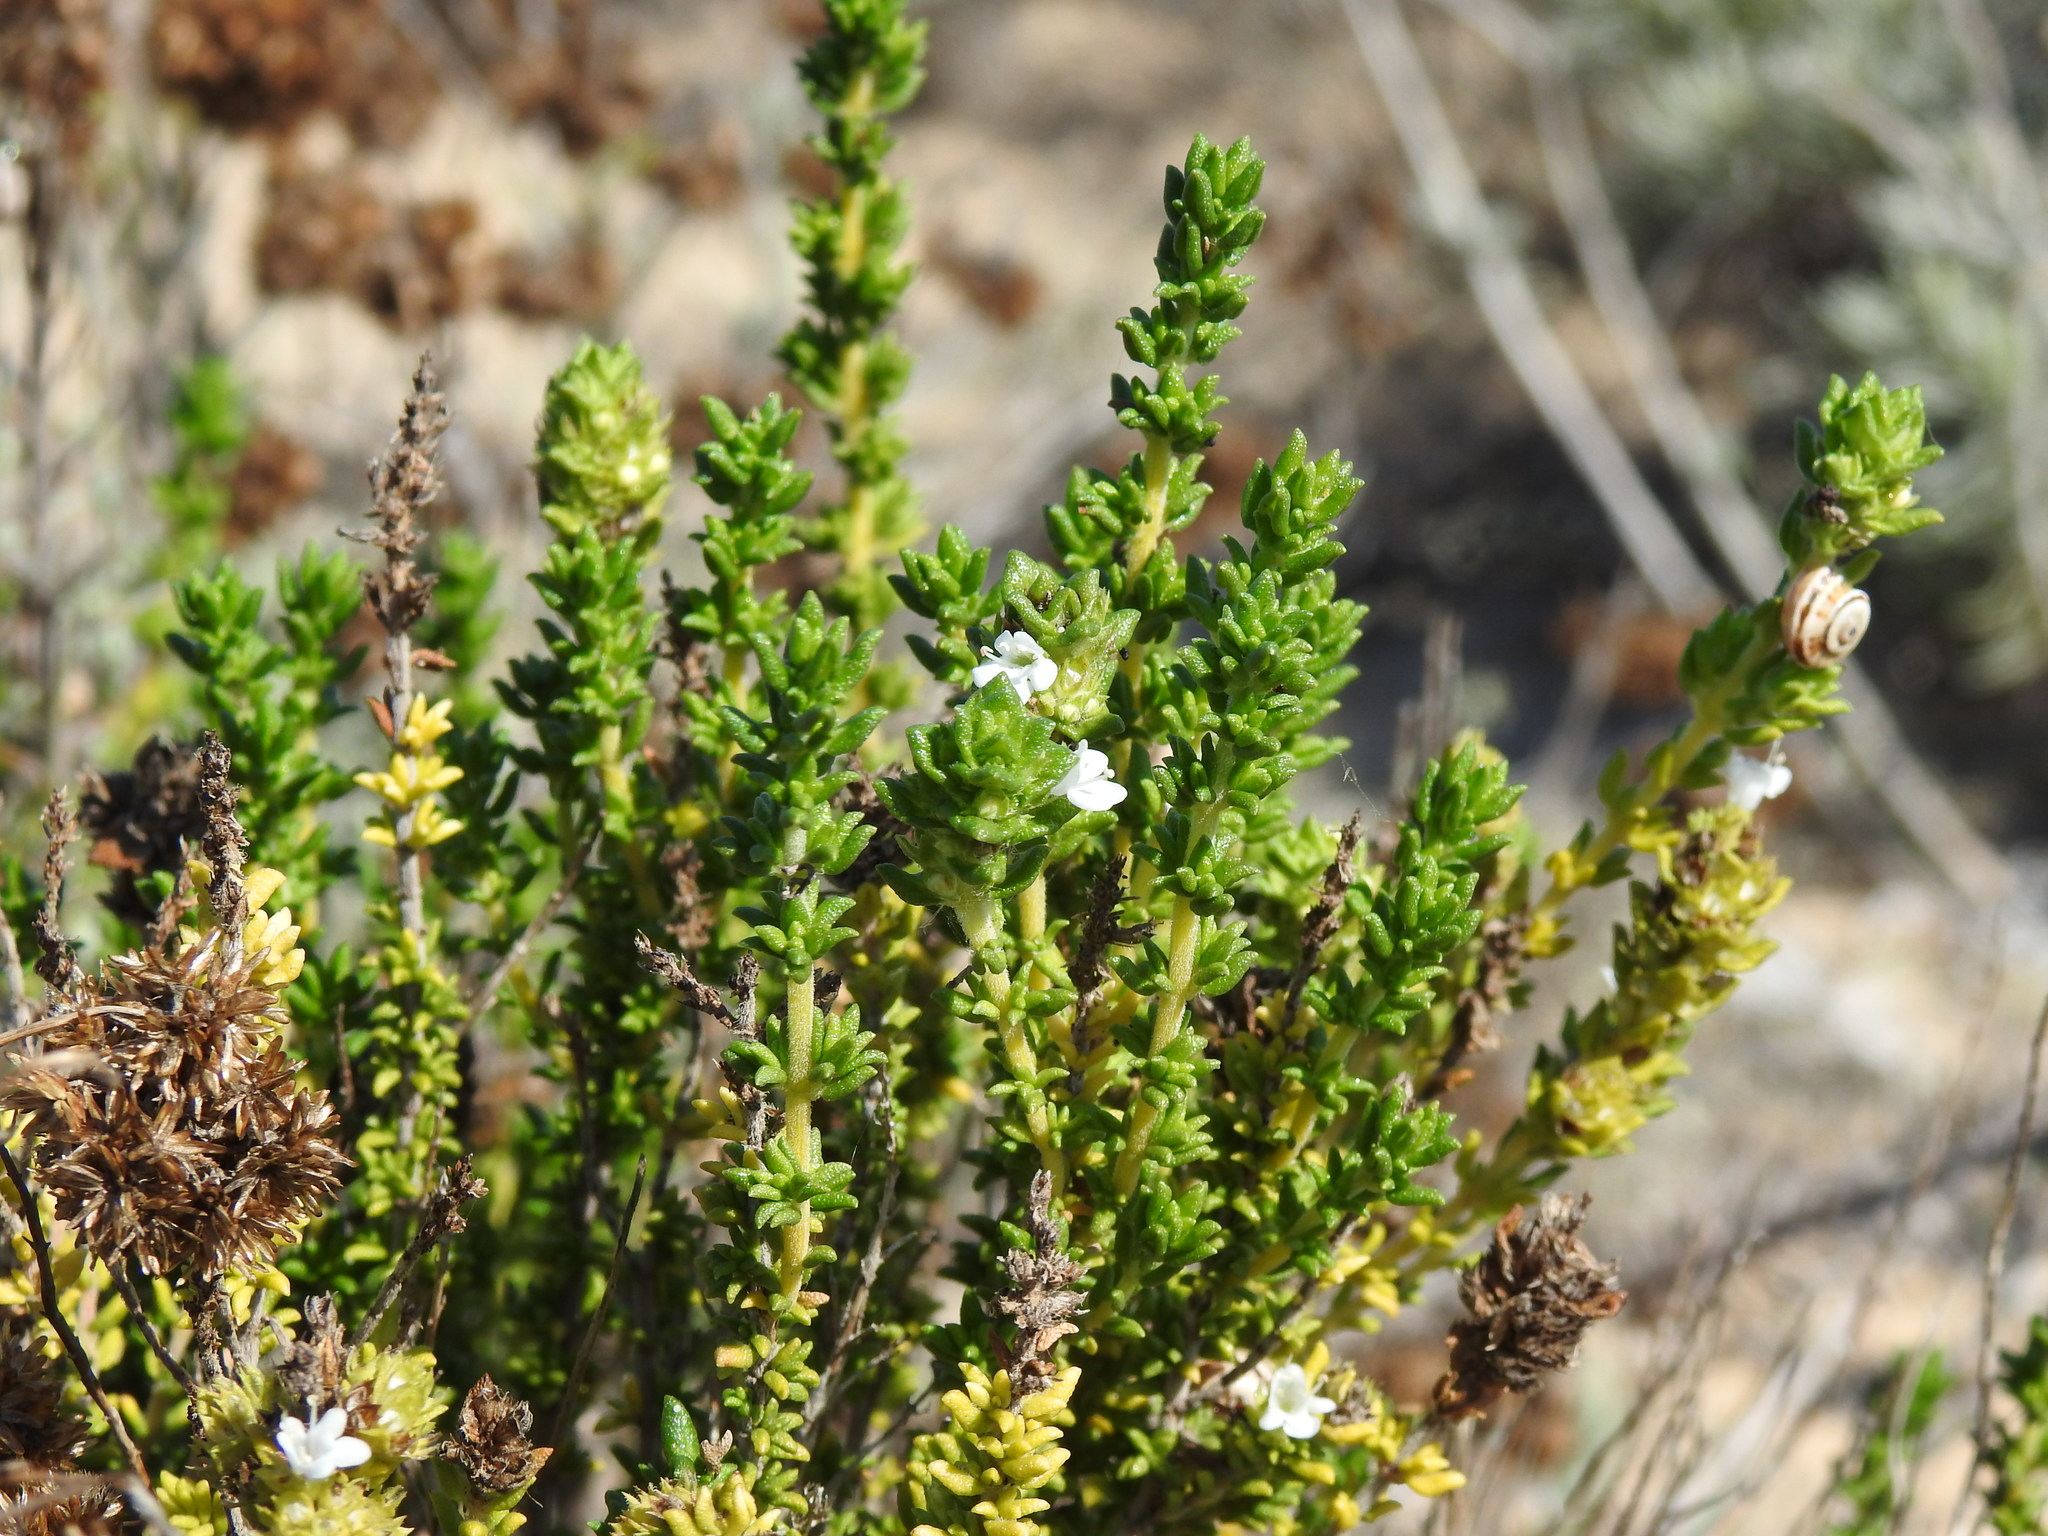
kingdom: Plantae
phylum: Tracheophyta
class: Magnoliopsida
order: Lamiales
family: Lamiaceae
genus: Thymus
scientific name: Thymus carnosus
